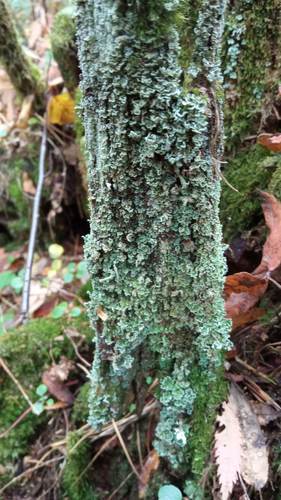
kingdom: Fungi
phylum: Ascomycota
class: Lecanoromycetes
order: Lecanorales
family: Cladoniaceae
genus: Cladonia
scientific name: Cladonia digitata
